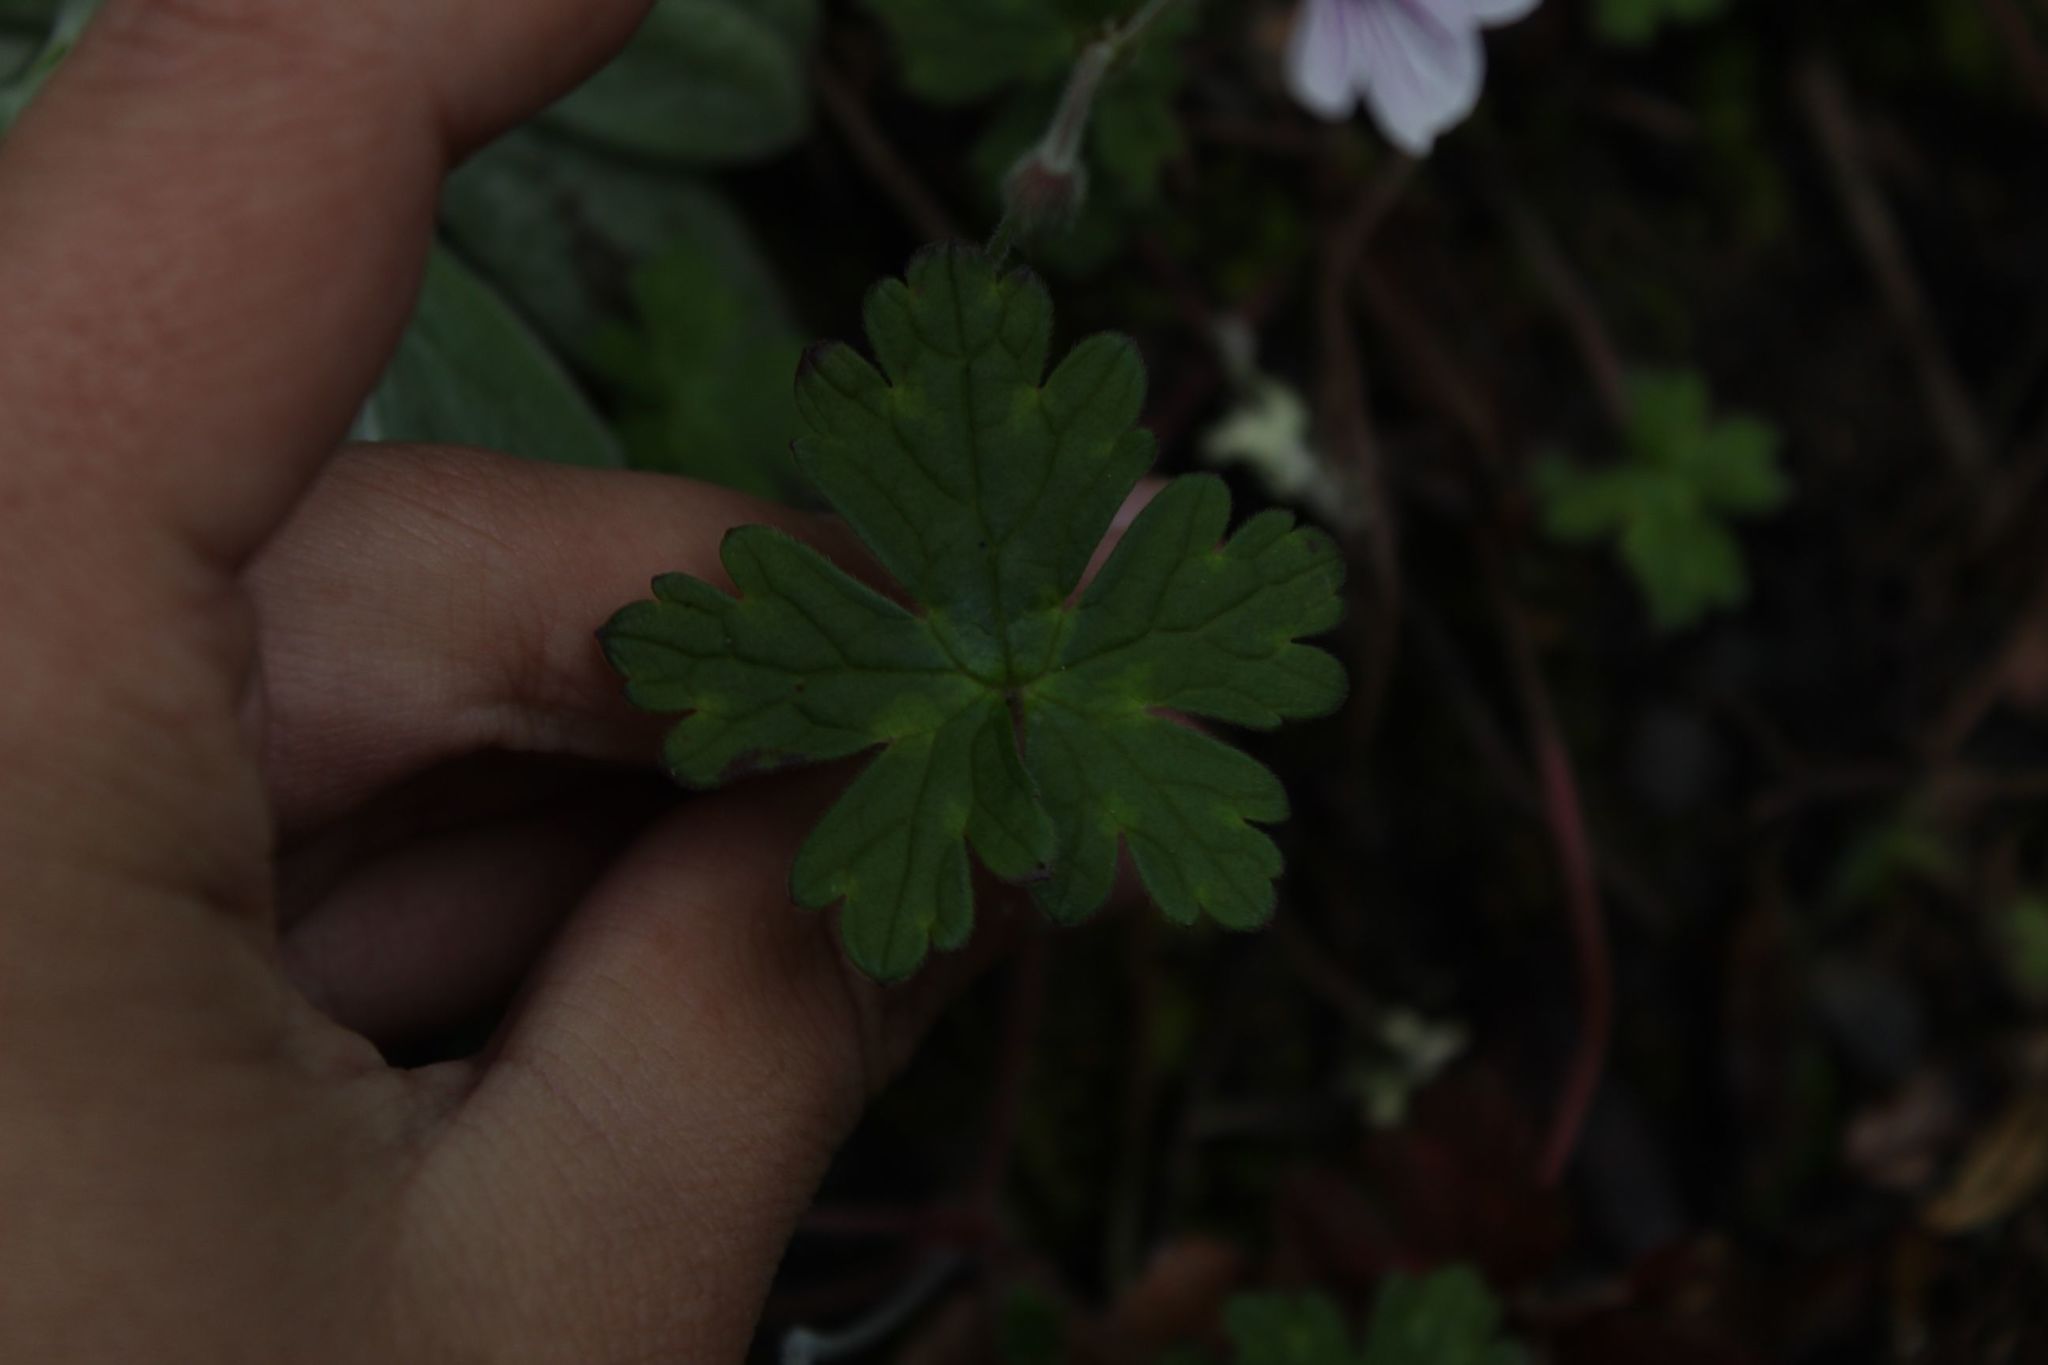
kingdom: Plantae
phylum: Tracheophyta
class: Magnoliopsida
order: Geraniales
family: Geraniaceae
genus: Geranium
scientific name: Geranium holosericeum
